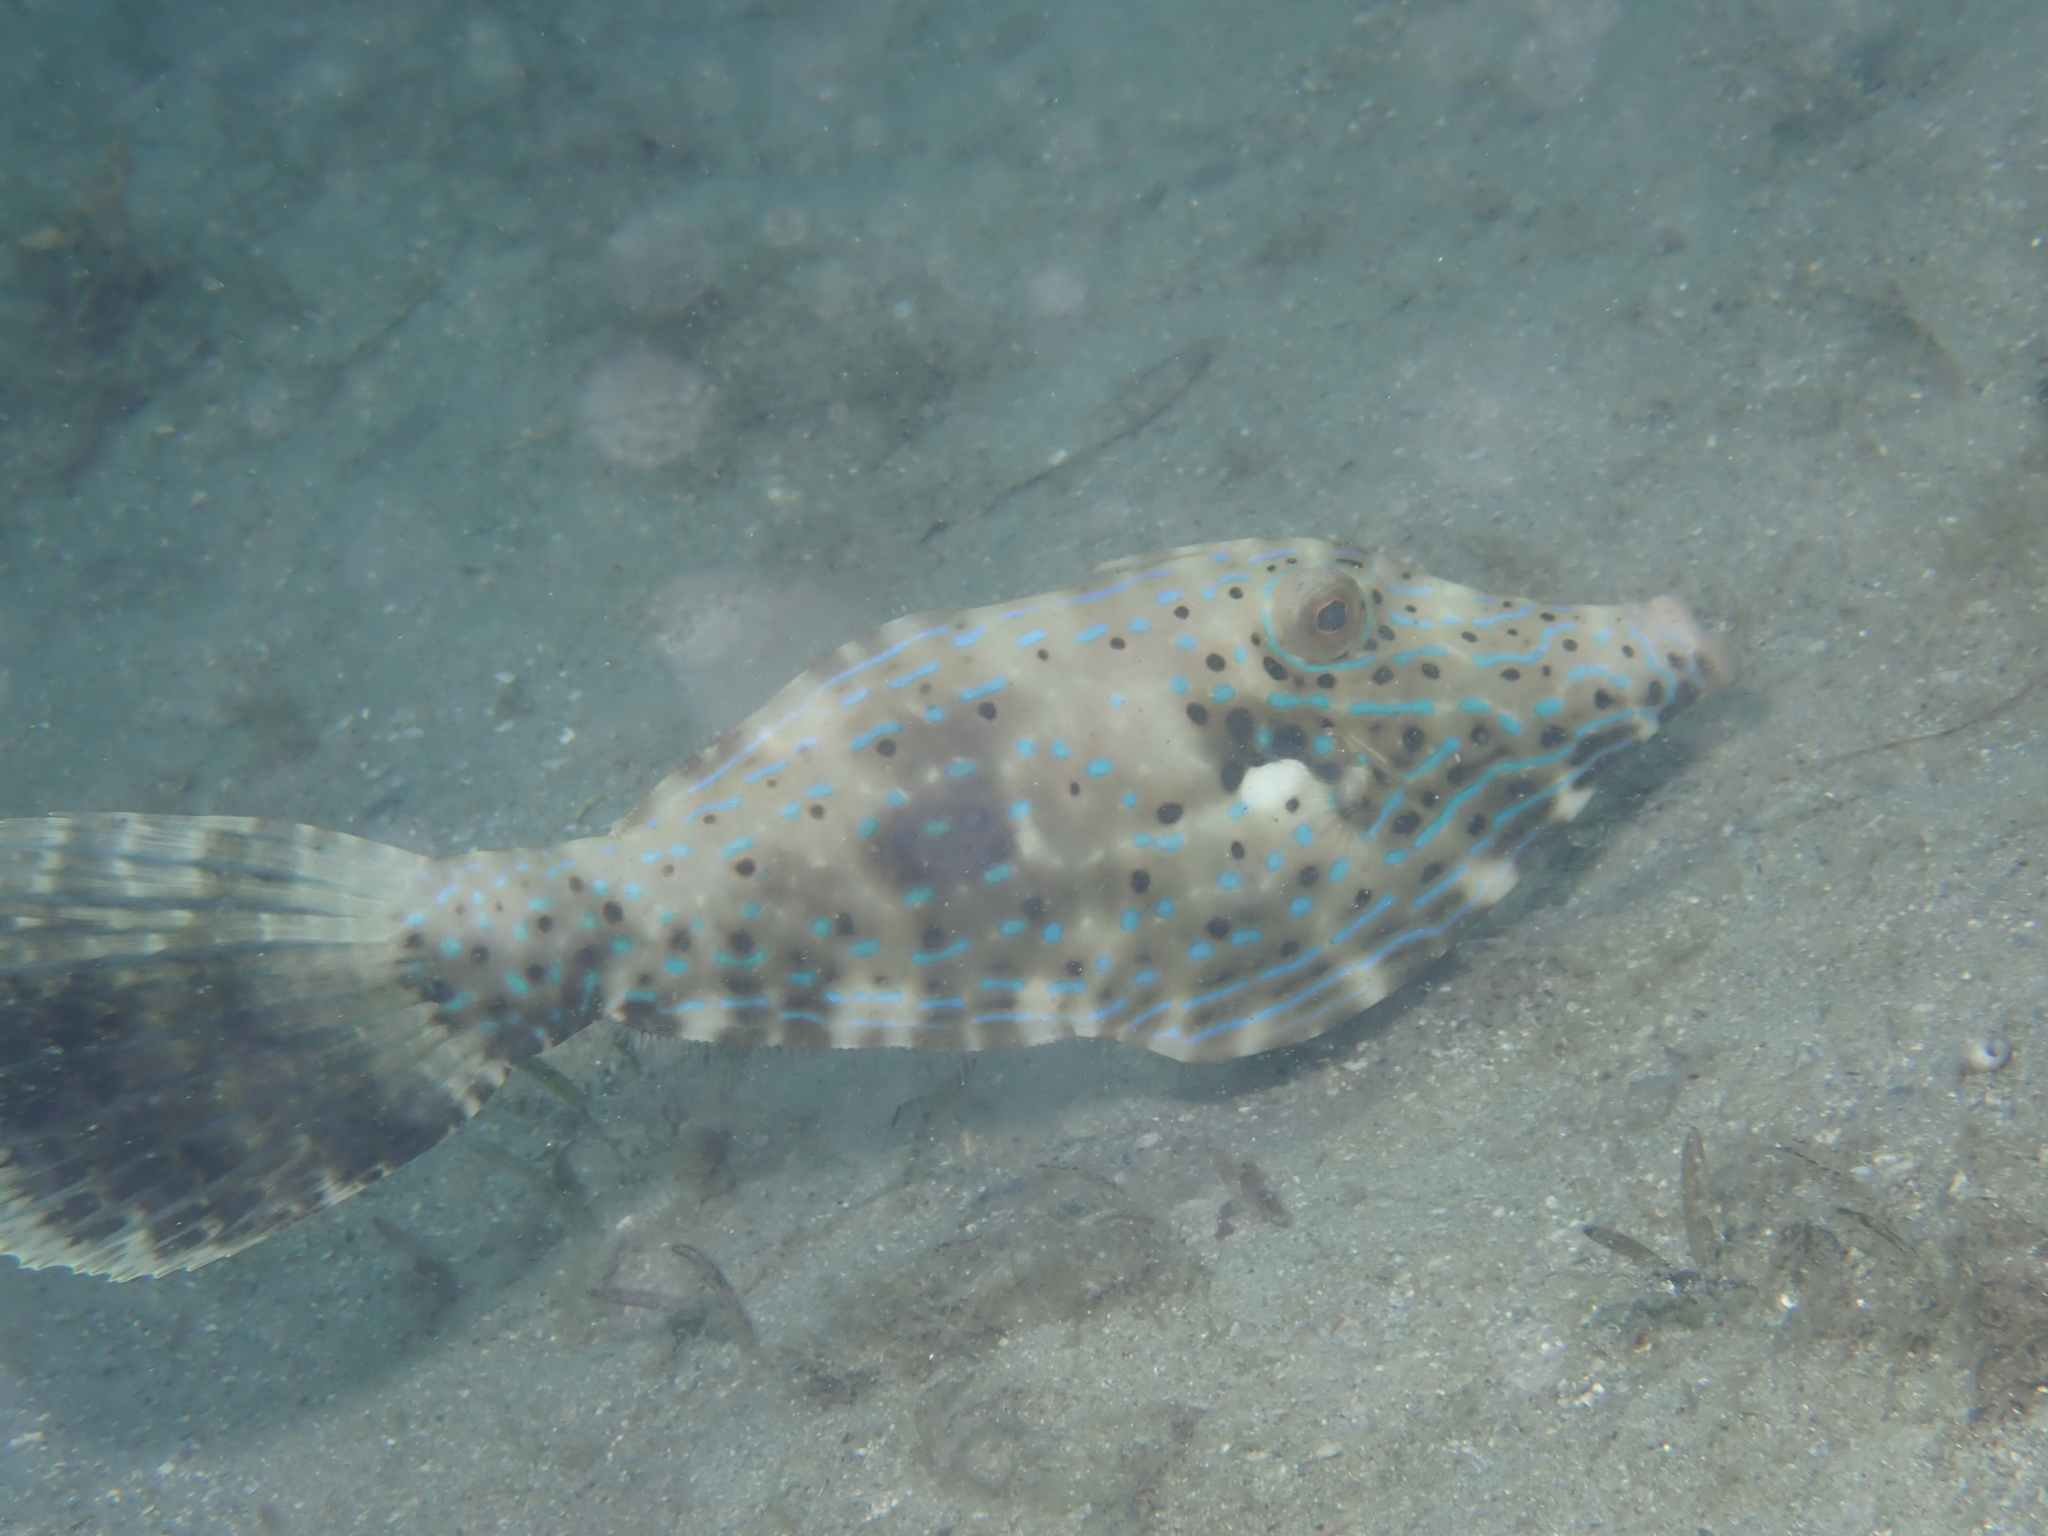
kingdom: Animalia
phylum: Chordata
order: Tetraodontiformes
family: Monacanthidae
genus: Aluterus
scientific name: Aluterus scriptus
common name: Scribbled leatherjacket filefish
